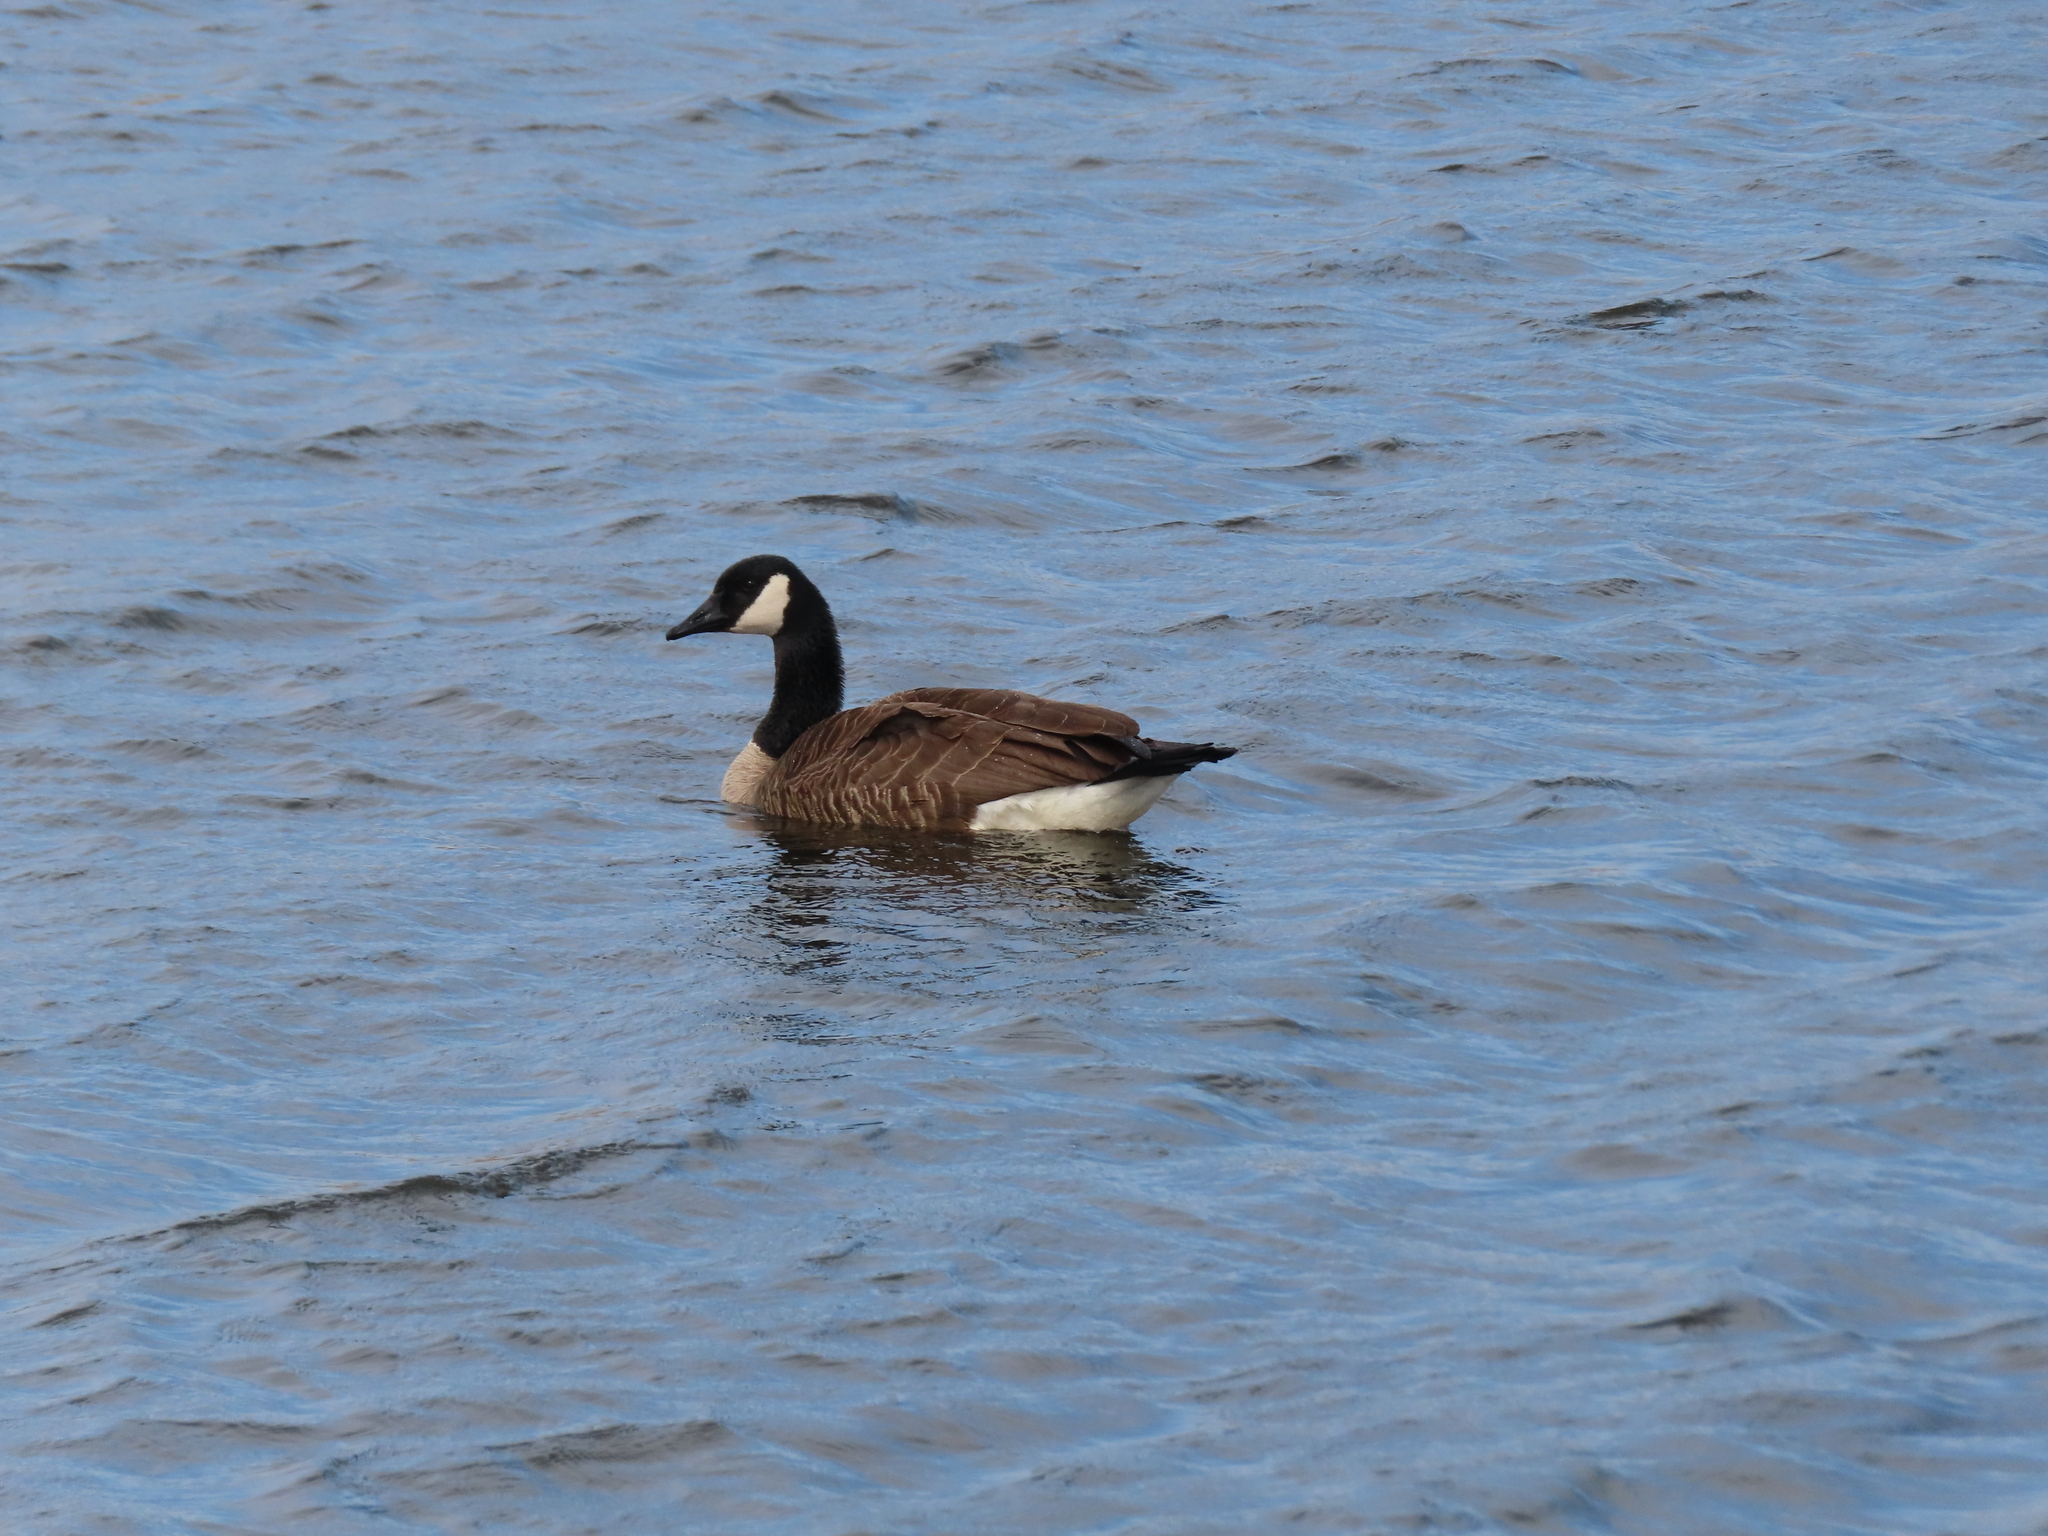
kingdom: Animalia
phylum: Chordata
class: Aves
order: Anseriformes
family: Anatidae
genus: Branta
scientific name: Branta canadensis
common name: Canada goose
